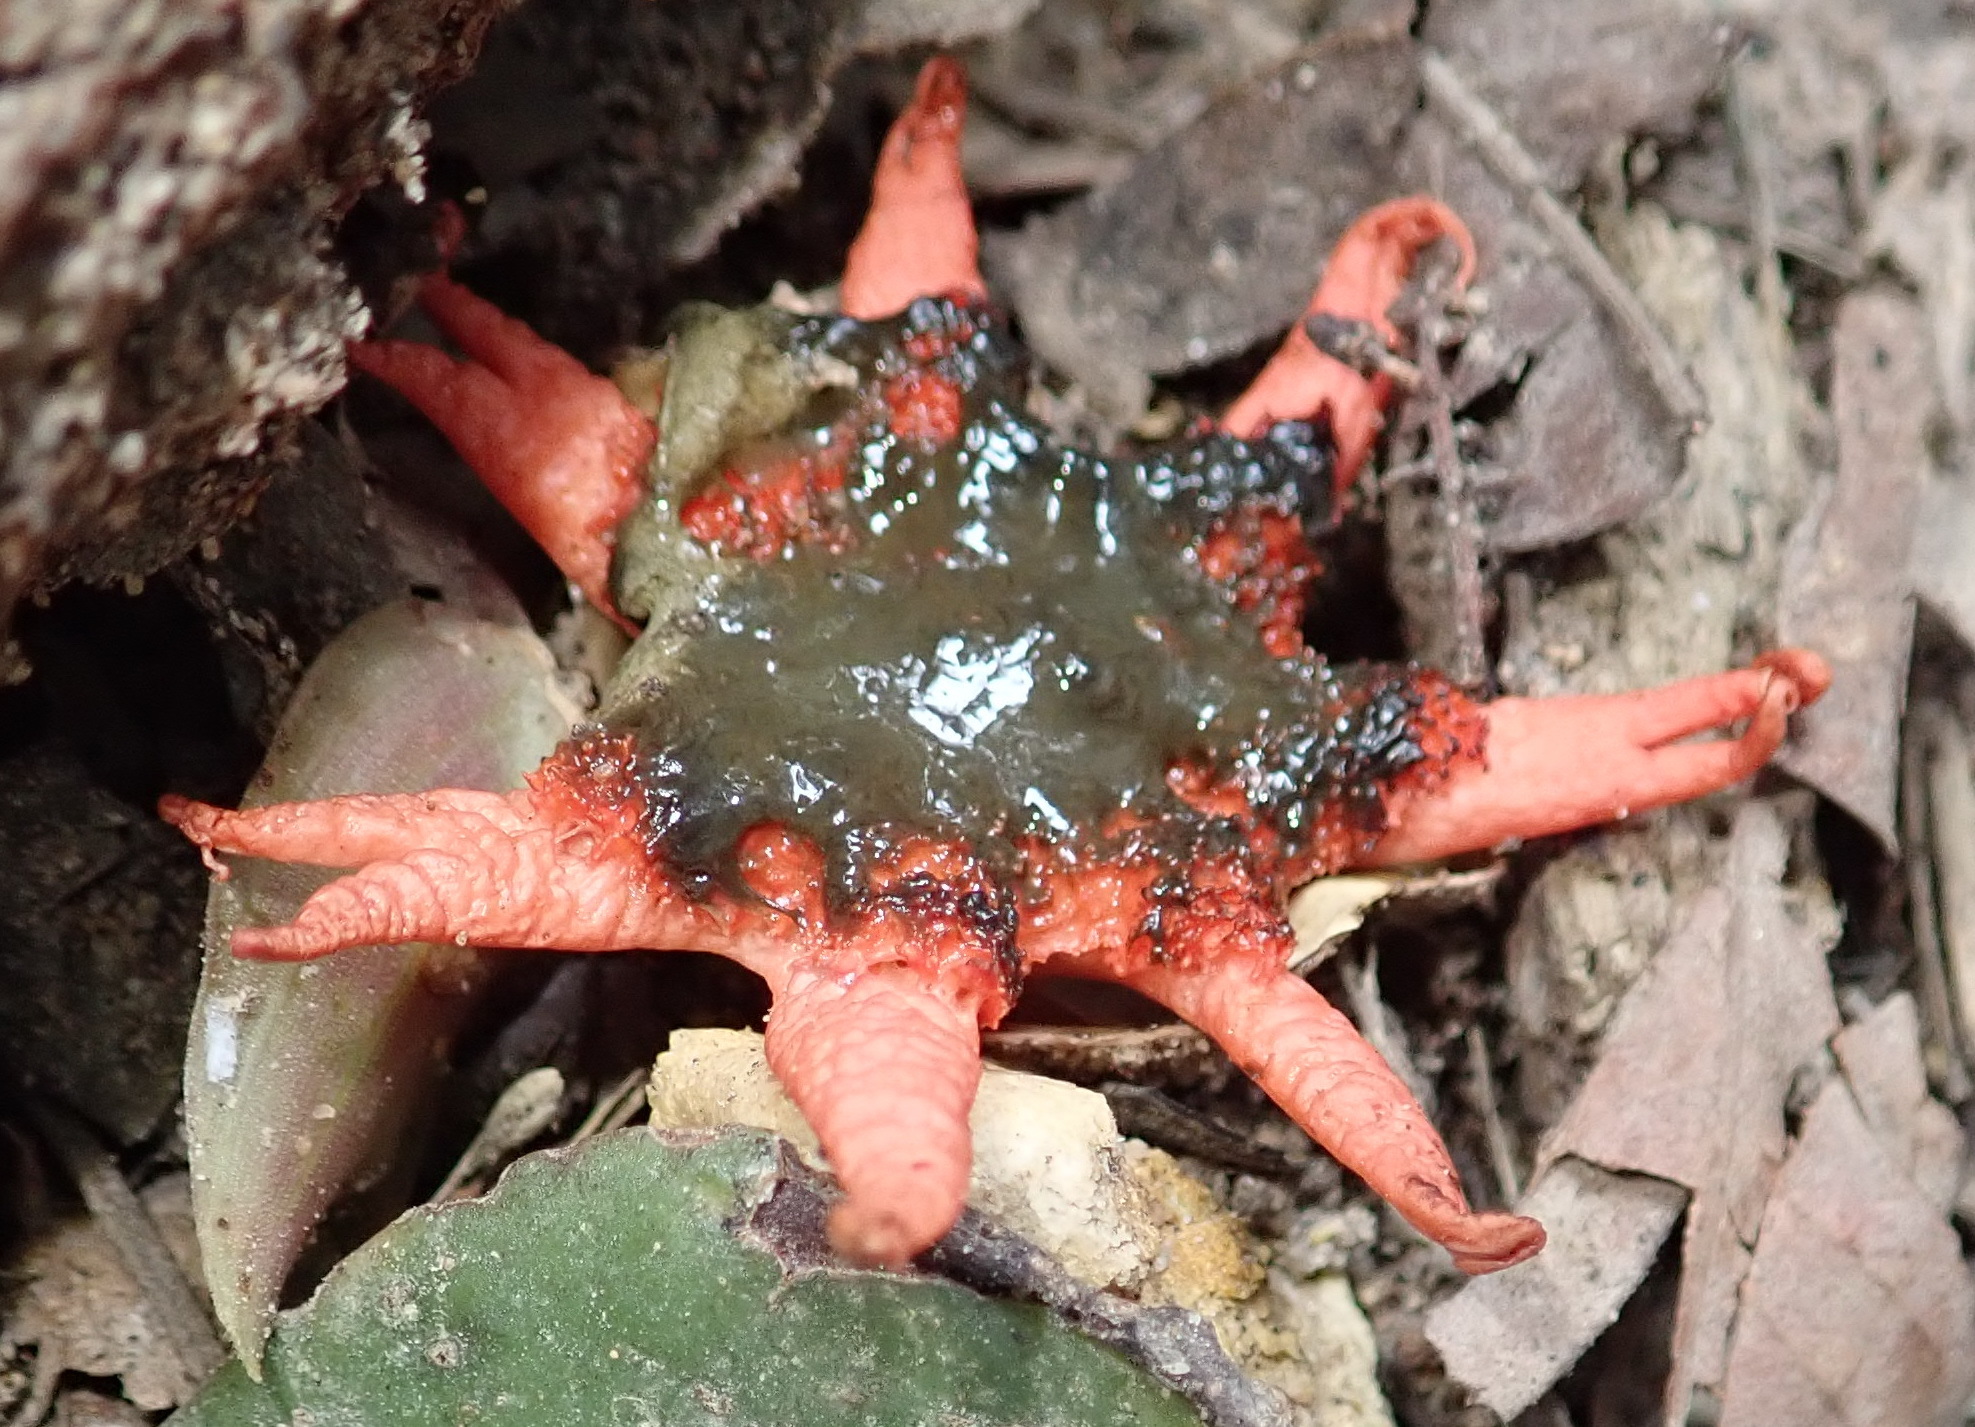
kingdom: Fungi
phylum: Basidiomycota
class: Agaricomycetes
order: Phallales
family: Phallaceae
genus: Aseroe
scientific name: Aseroe rubra
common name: Starfish fungus
